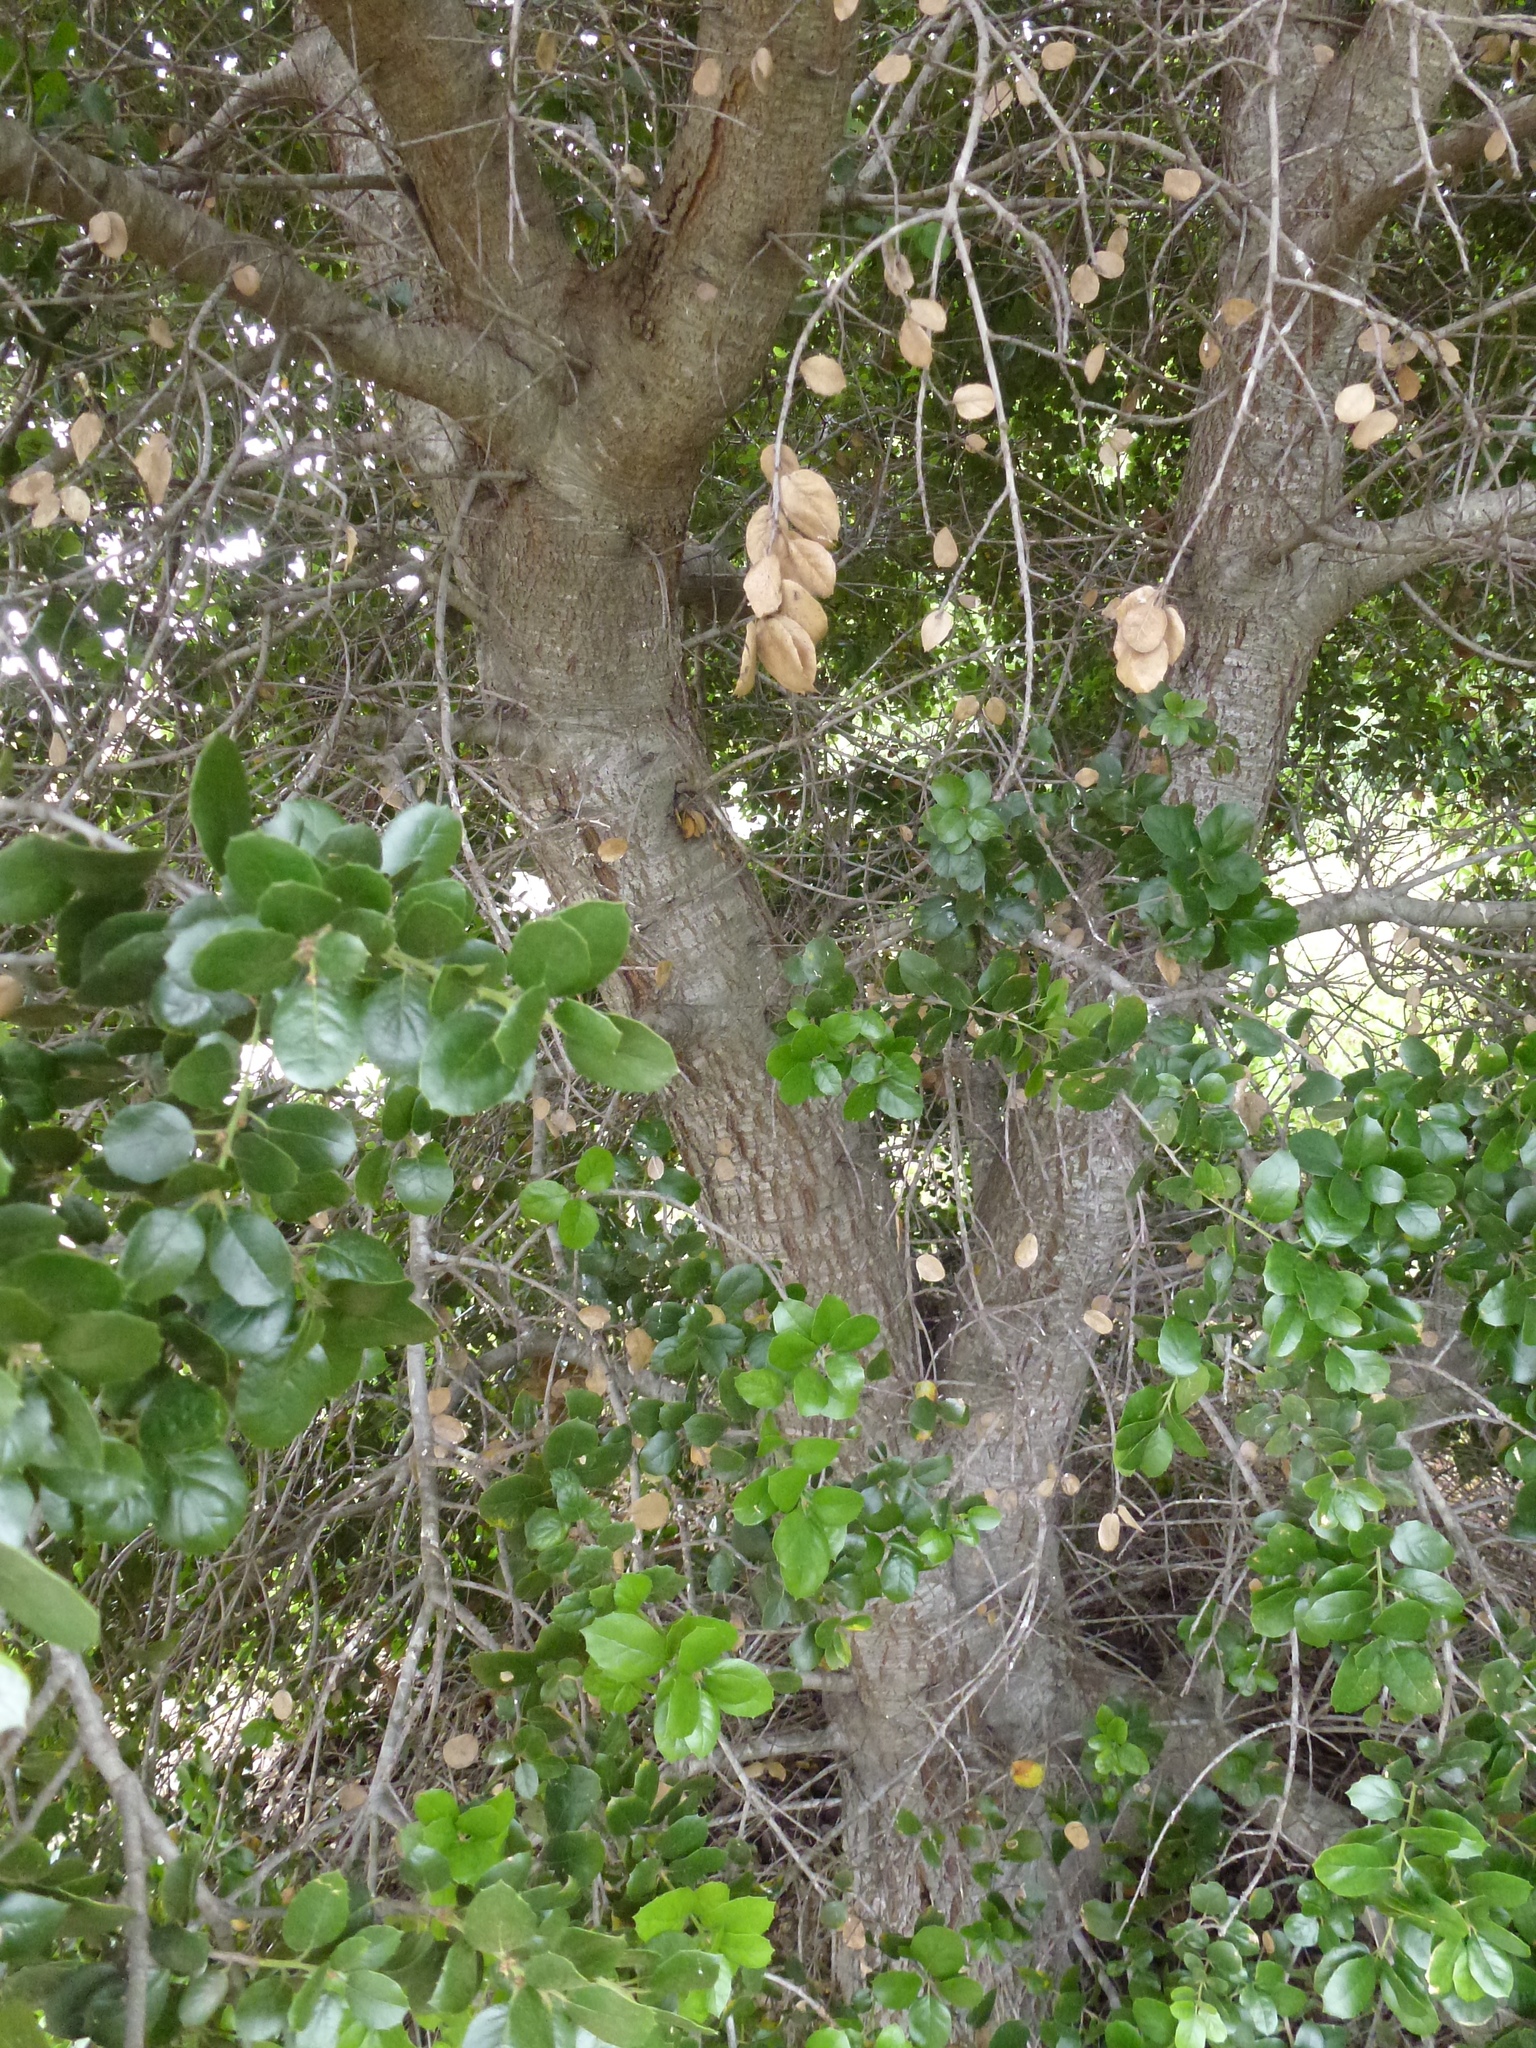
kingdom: Plantae
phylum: Tracheophyta
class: Magnoliopsida
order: Fagales
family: Fagaceae
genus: Quercus
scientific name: Quercus agrifolia
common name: California live oak
